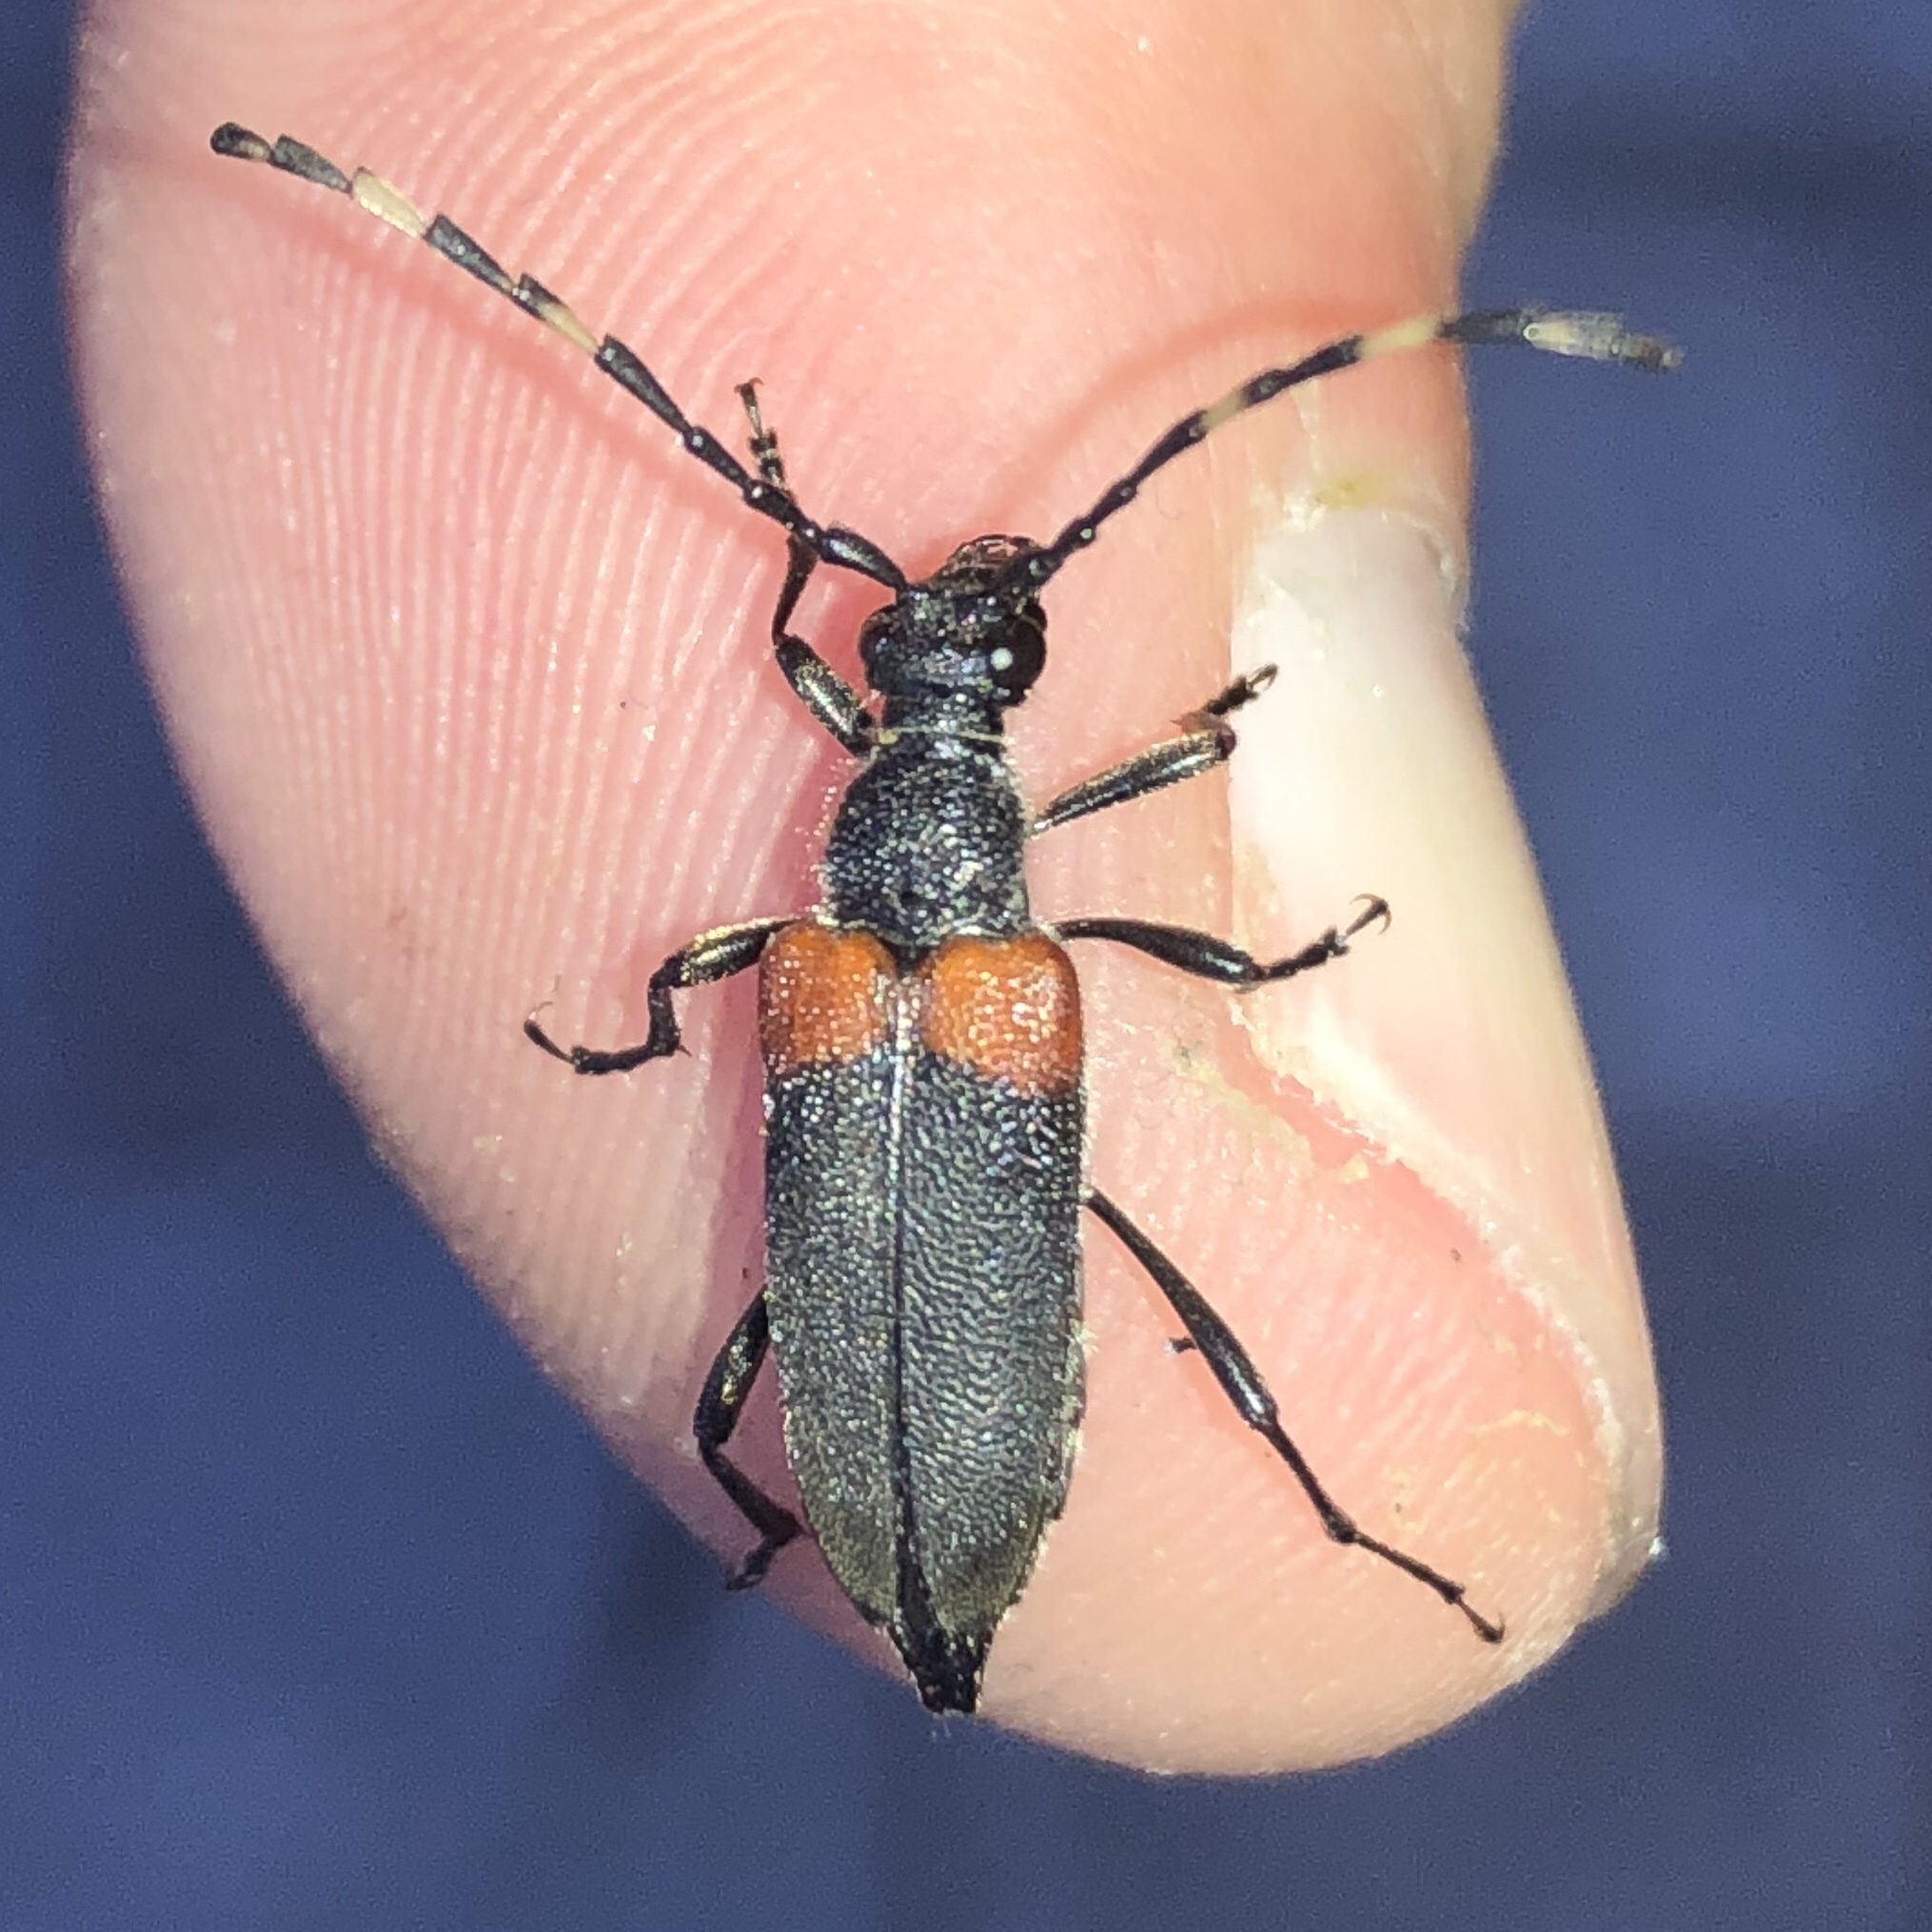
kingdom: Animalia
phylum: Arthropoda
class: Insecta
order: Coleoptera
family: Cerambycidae
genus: Stictoleptura
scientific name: Stictoleptura canadensis
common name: Red-shouldered pine borer
